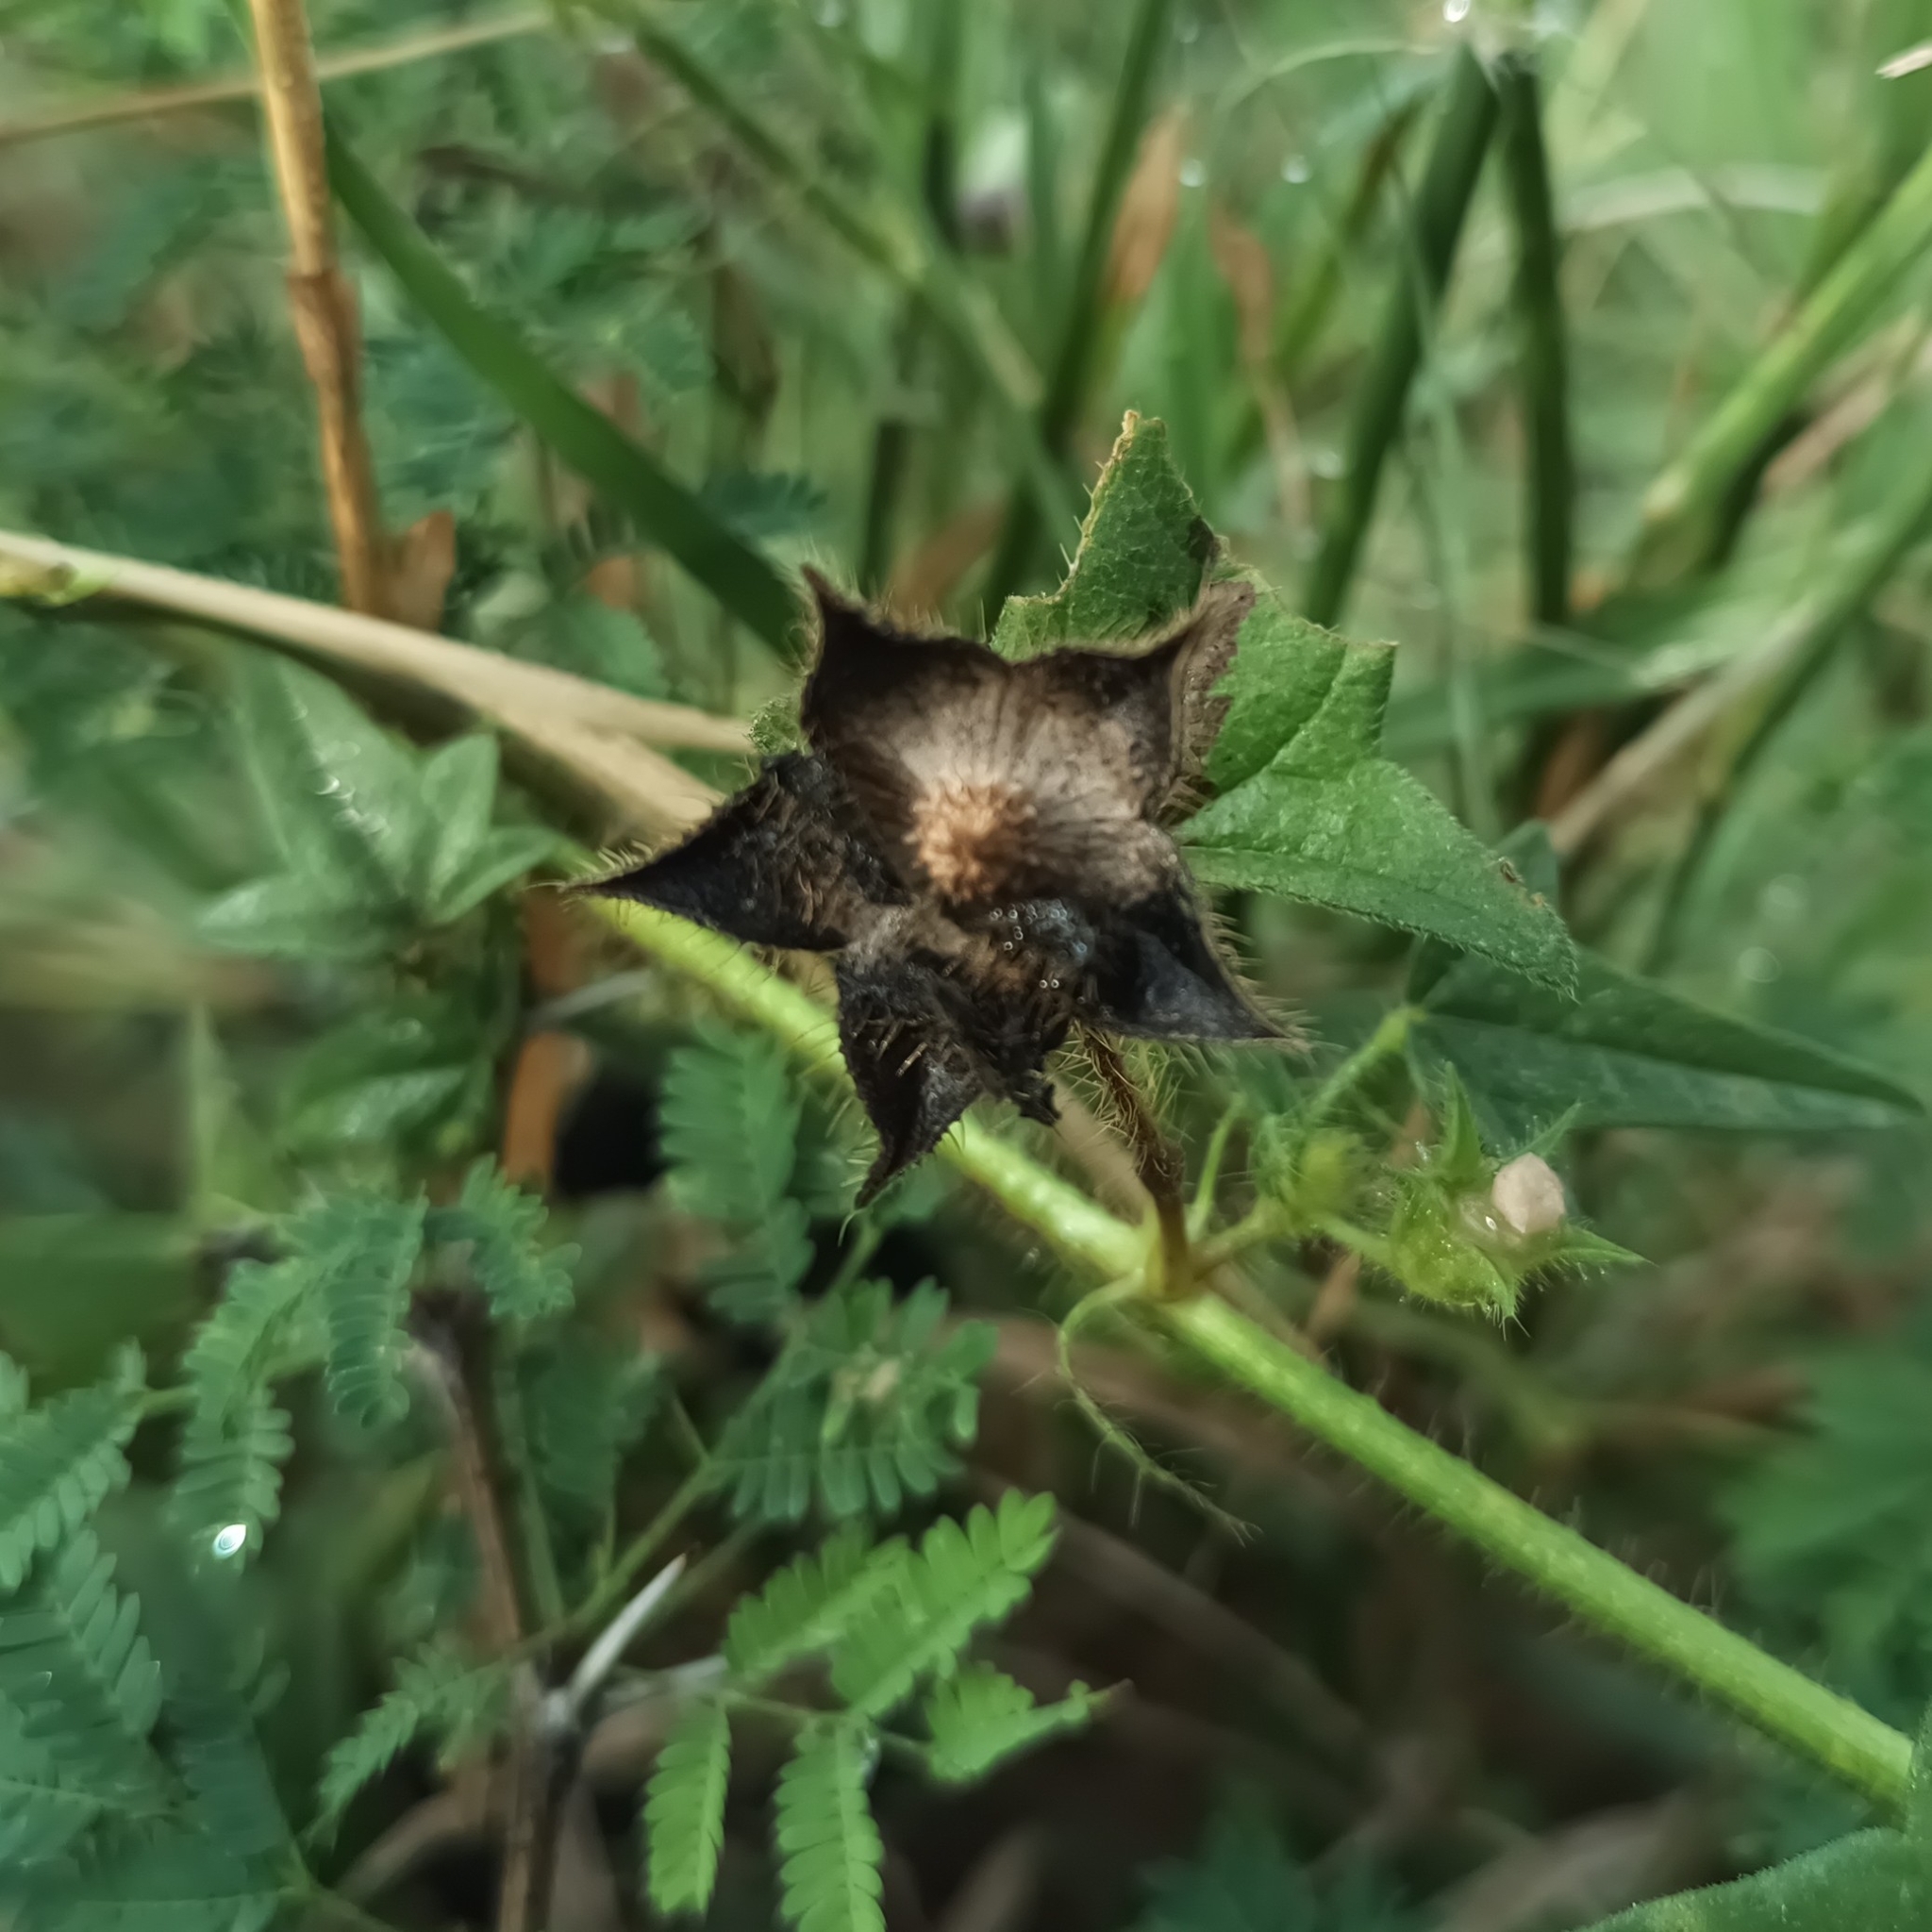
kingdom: Plantae
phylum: Tracheophyta
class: Magnoliopsida
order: Malvales
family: Malvaceae
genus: Anoda
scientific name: Anoda cristata
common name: Spurred anoda
